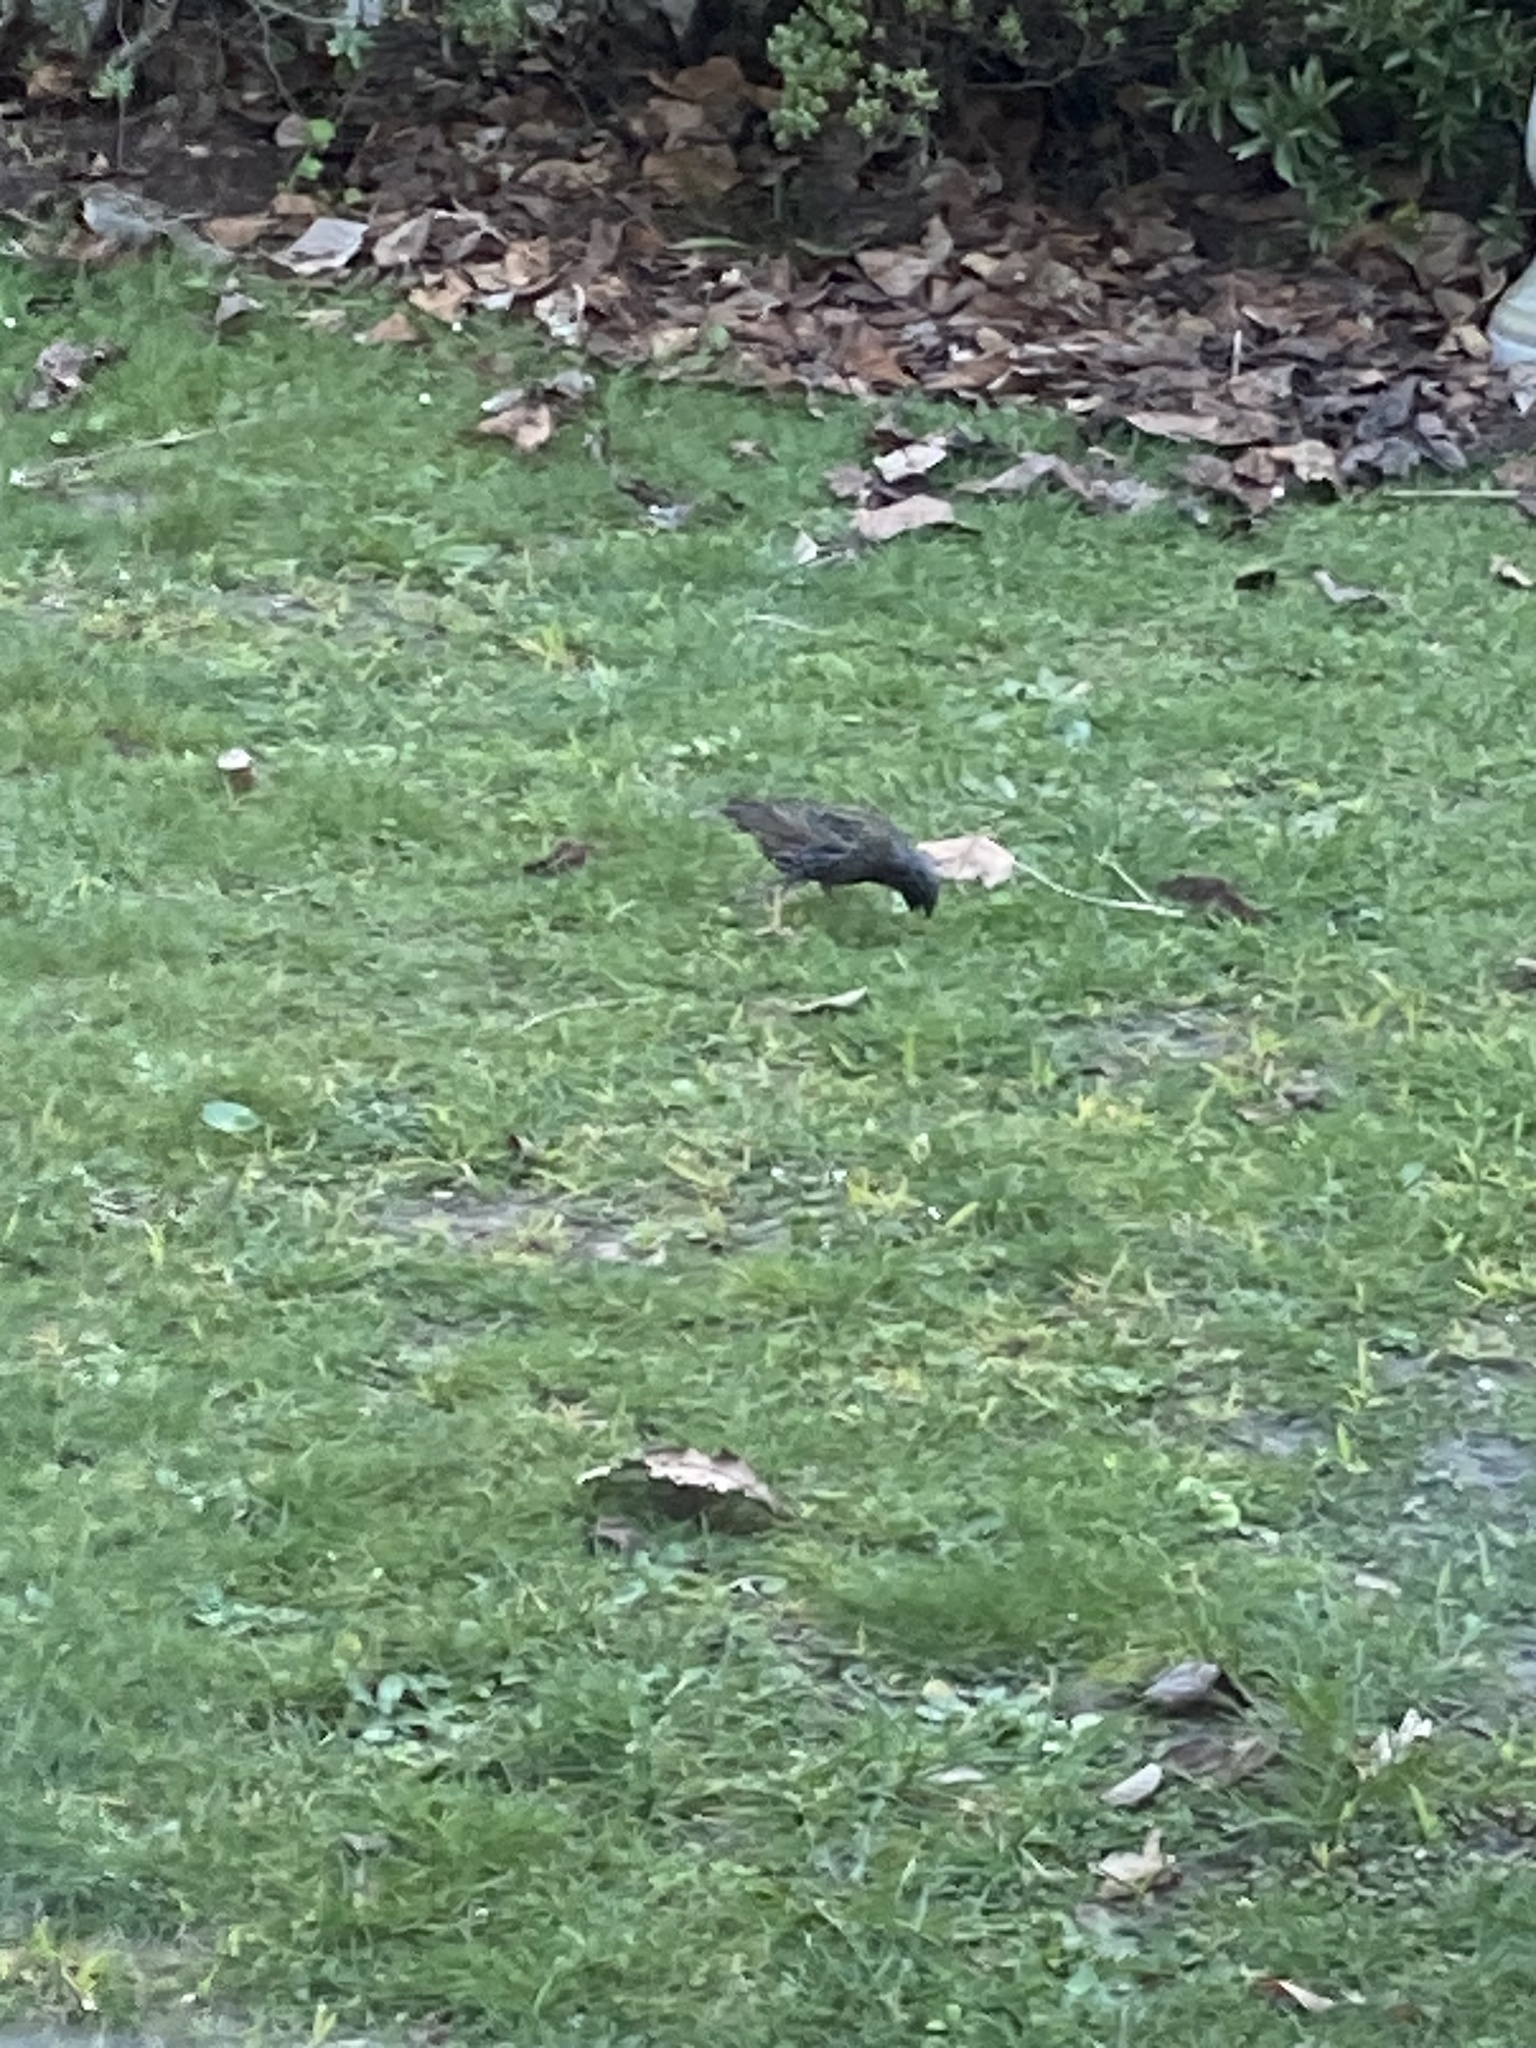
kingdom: Animalia
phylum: Chordata
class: Aves
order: Passeriformes
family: Sturnidae
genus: Sturnus
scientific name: Sturnus vulgaris
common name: Common starling
